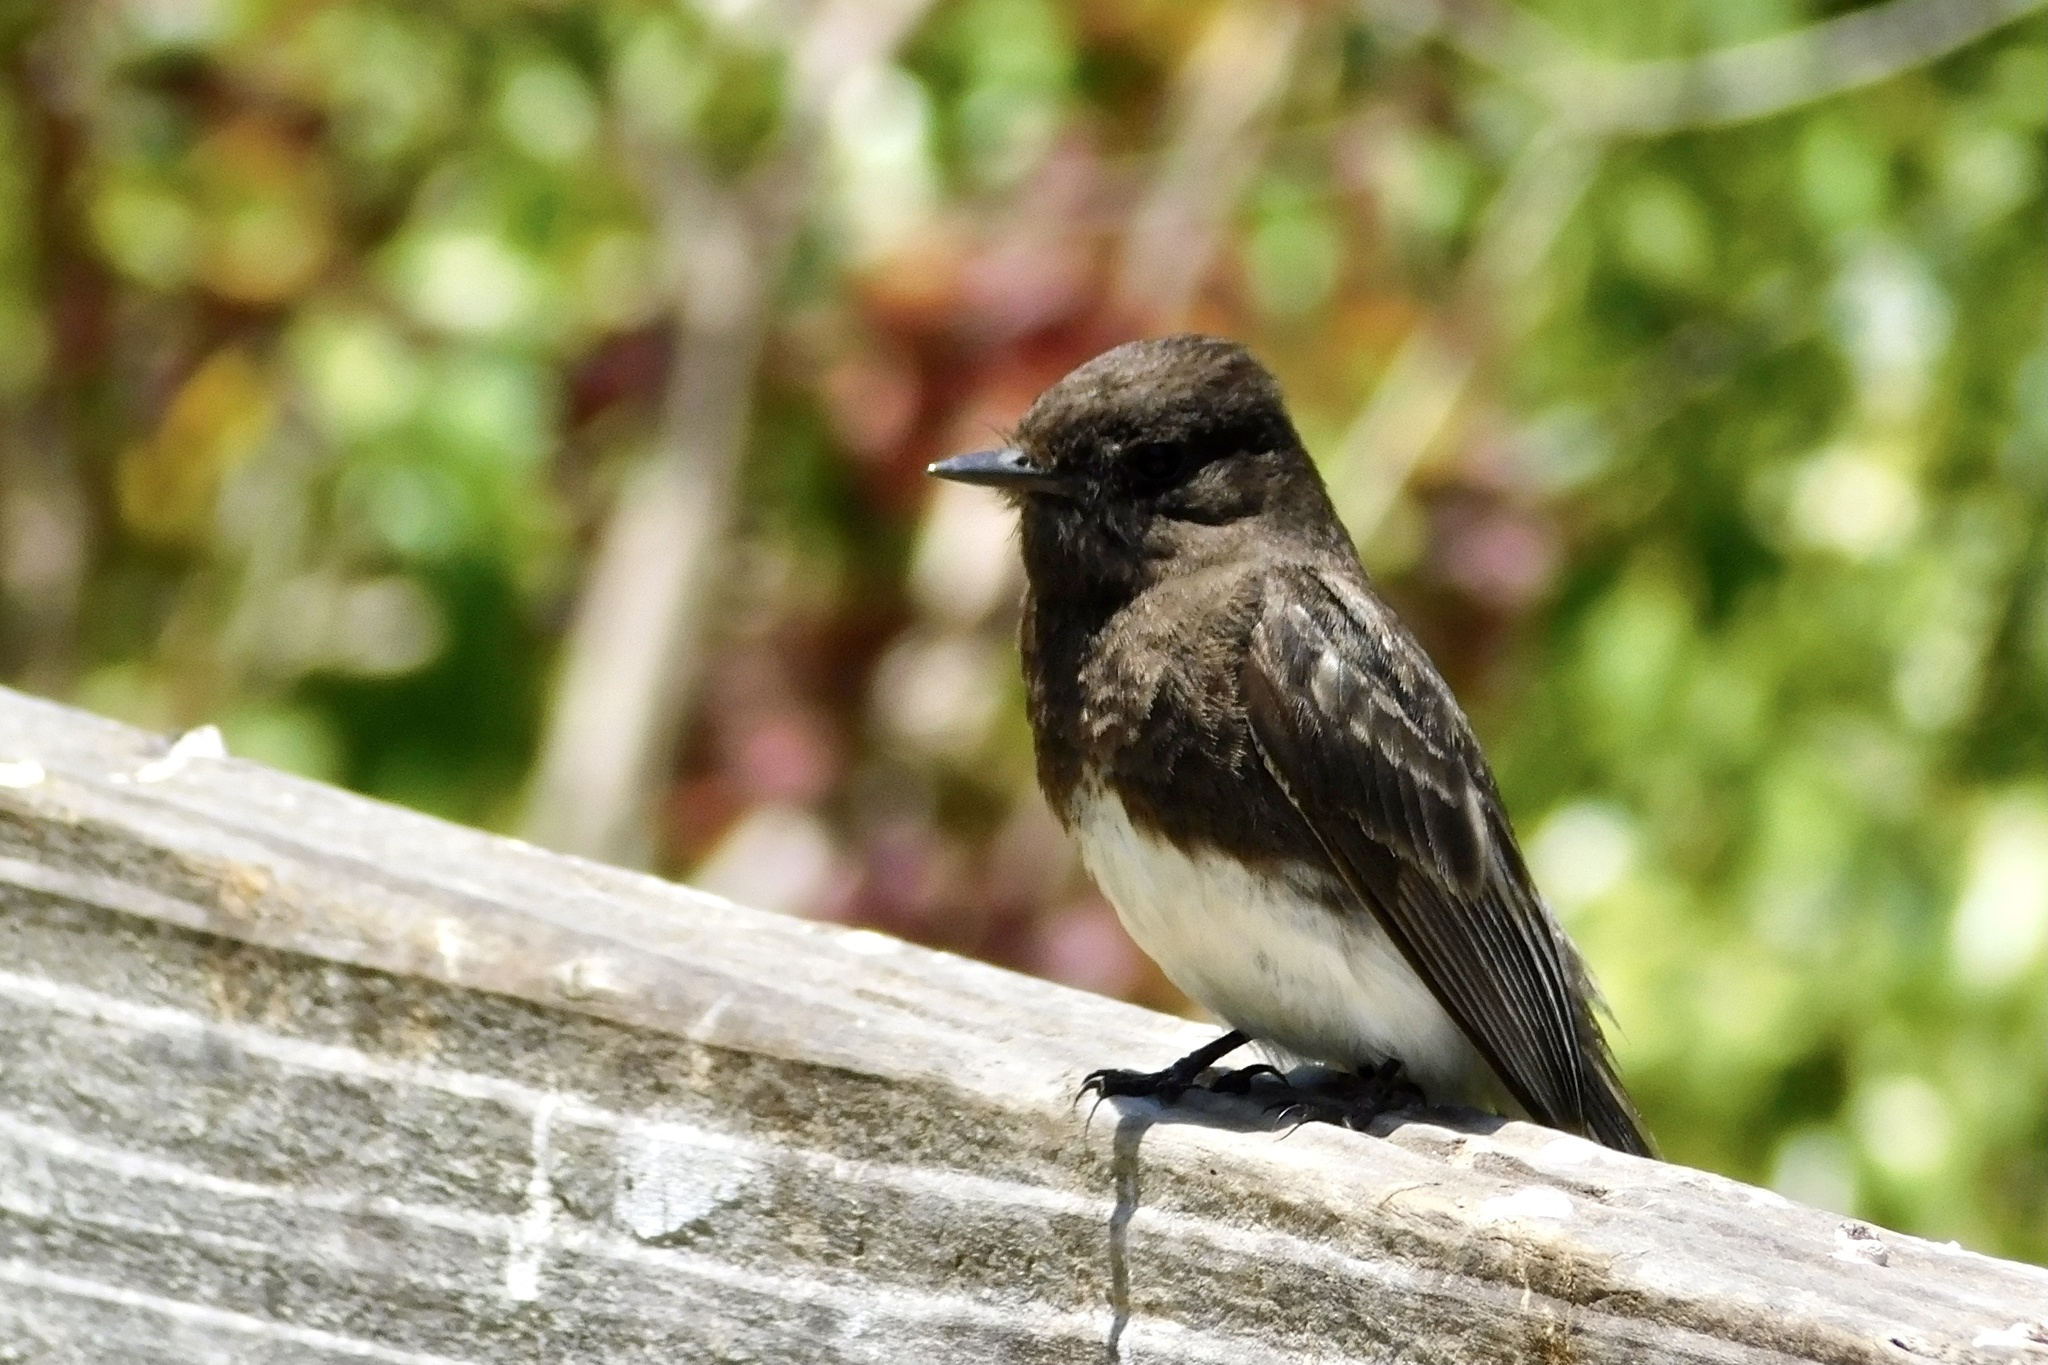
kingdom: Animalia
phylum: Chordata
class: Aves
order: Passeriformes
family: Tyrannidae
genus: Sayornis
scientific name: Sayornis nigricans
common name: Black phoebe
